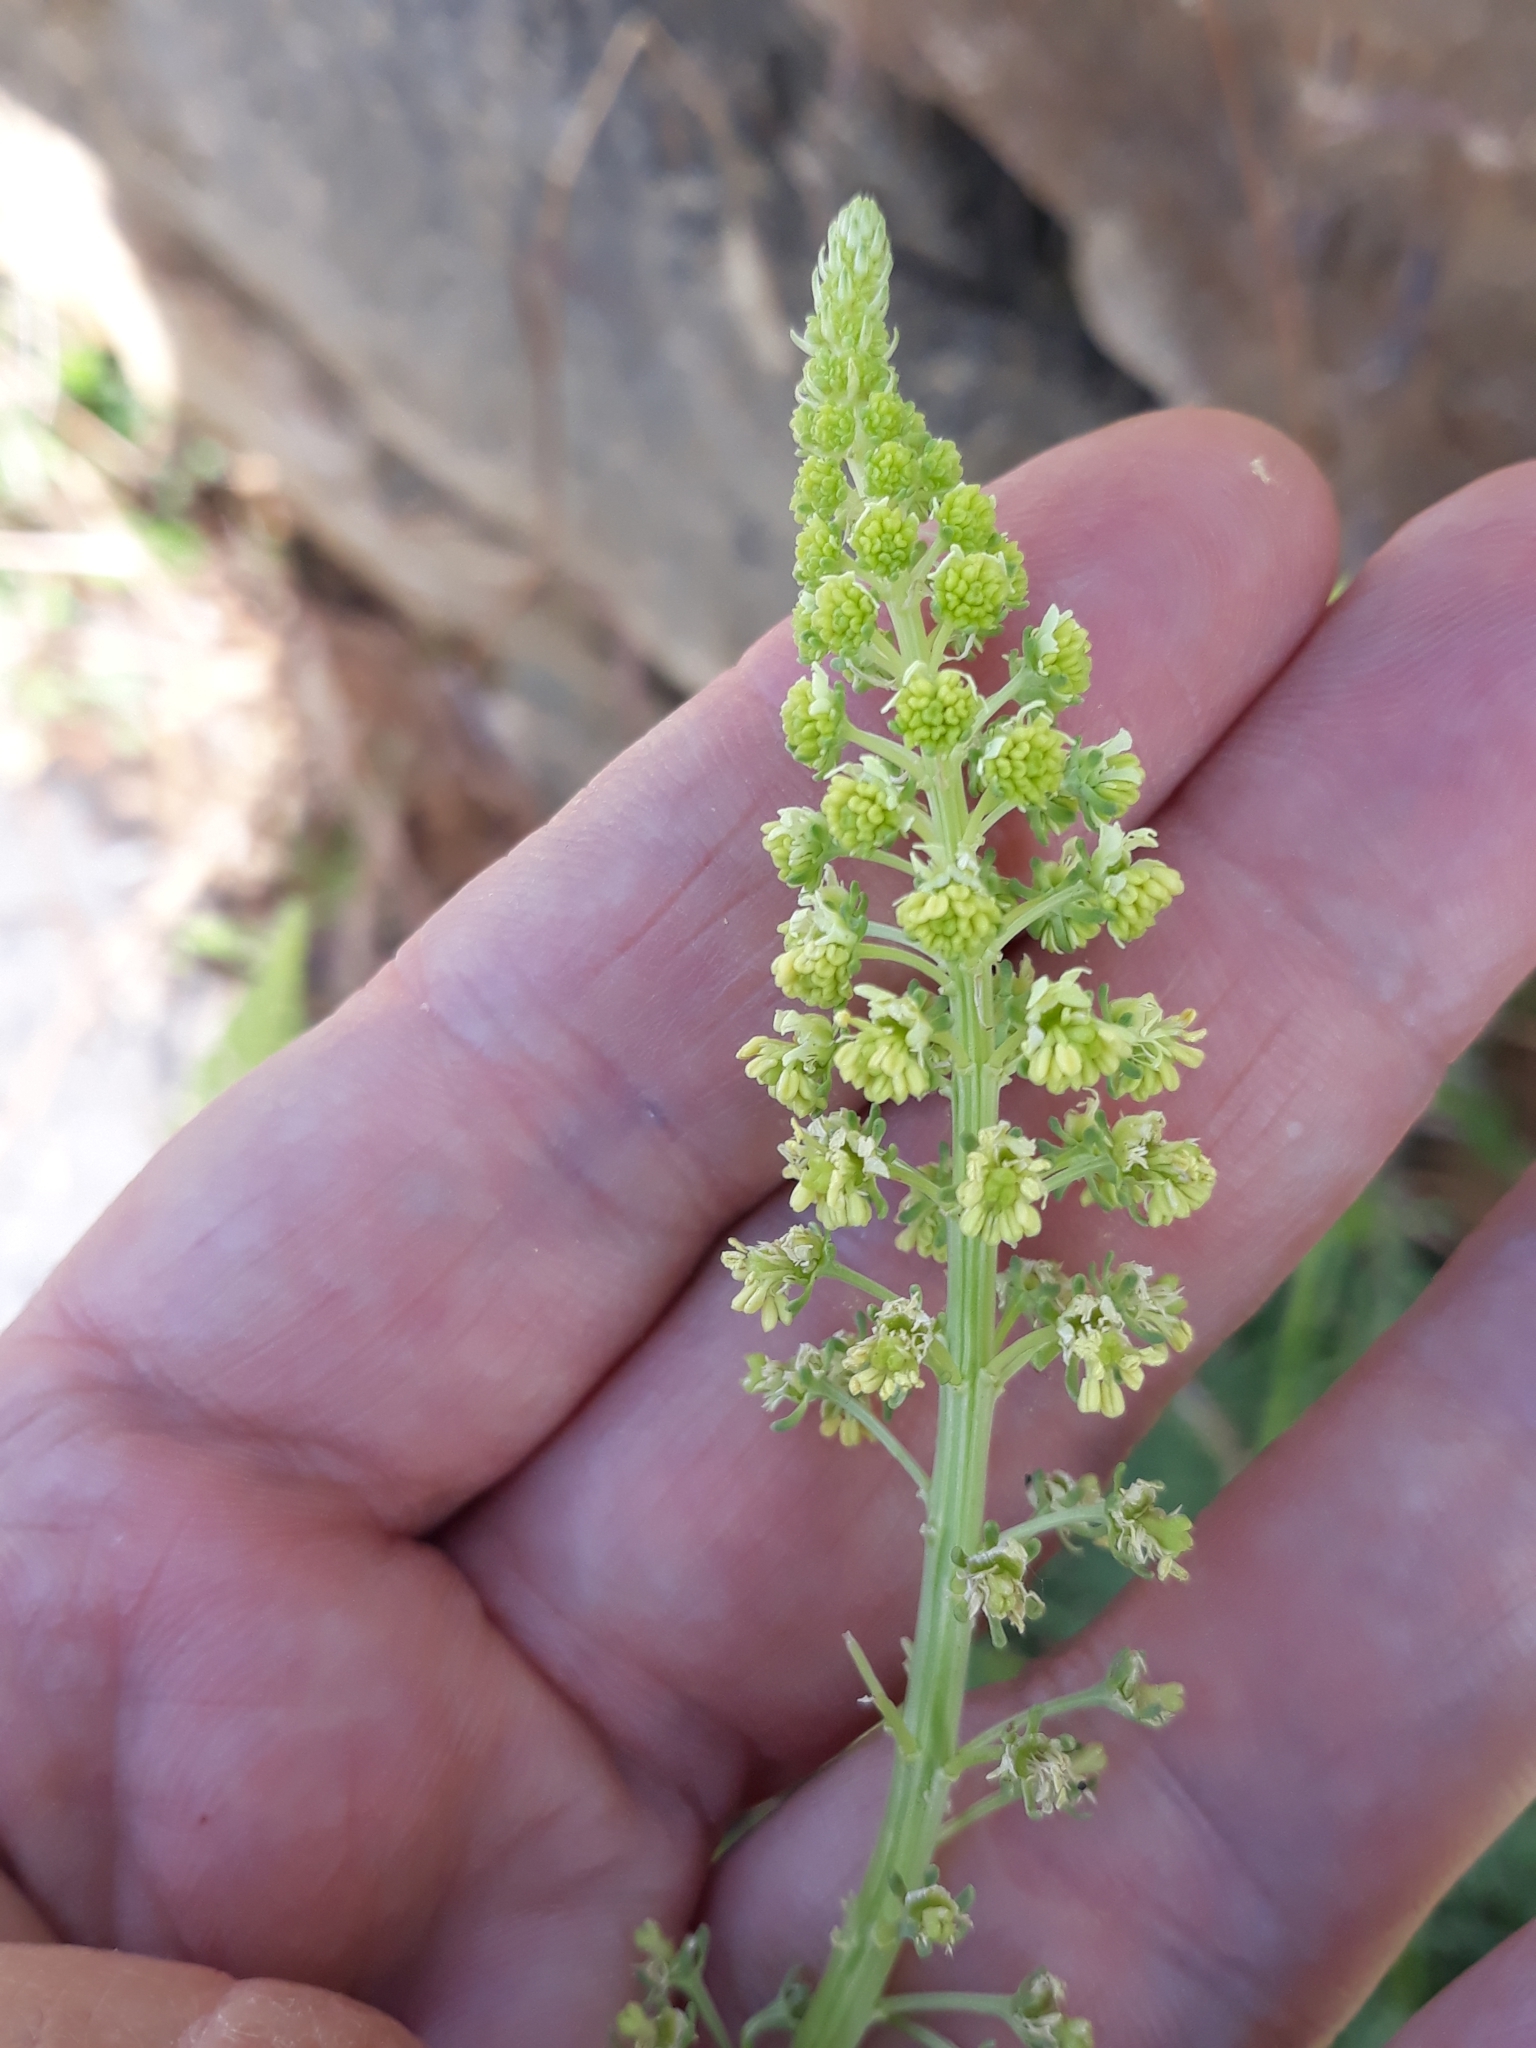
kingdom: Plantae
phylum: Tracheophyta
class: Magnoliopsida
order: Brassicales
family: Resedaceae
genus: Reseda
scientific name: Reseda lutea
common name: Wild mignonette
